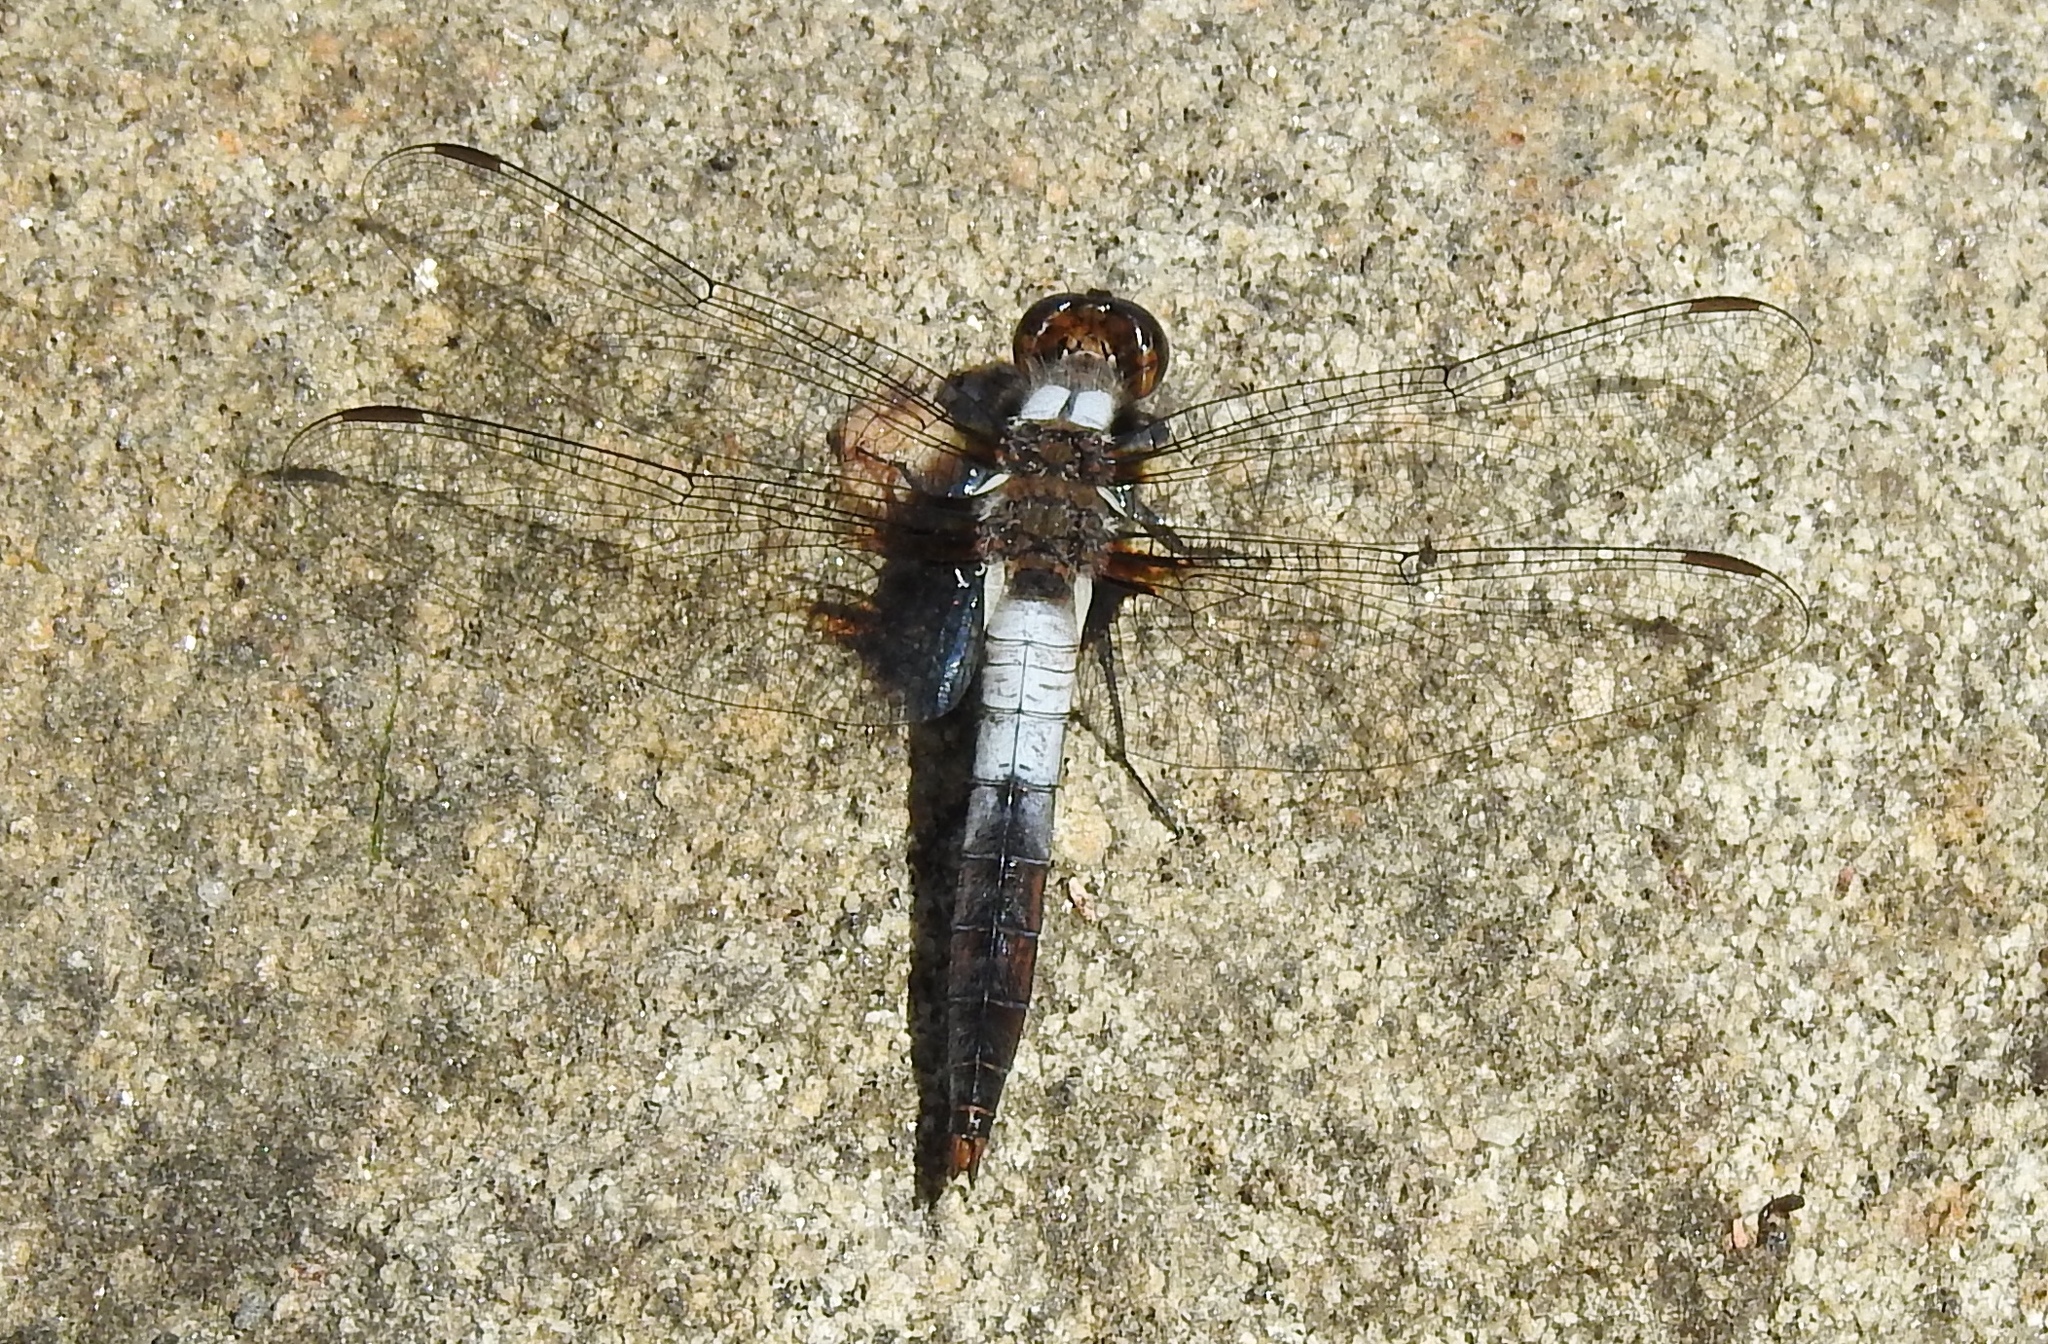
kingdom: Animalia
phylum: Arthropoda
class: Insecta
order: Odonata
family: Libellulidae
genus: Ladona
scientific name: Ladona julia
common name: Chalk-fronted corporal
